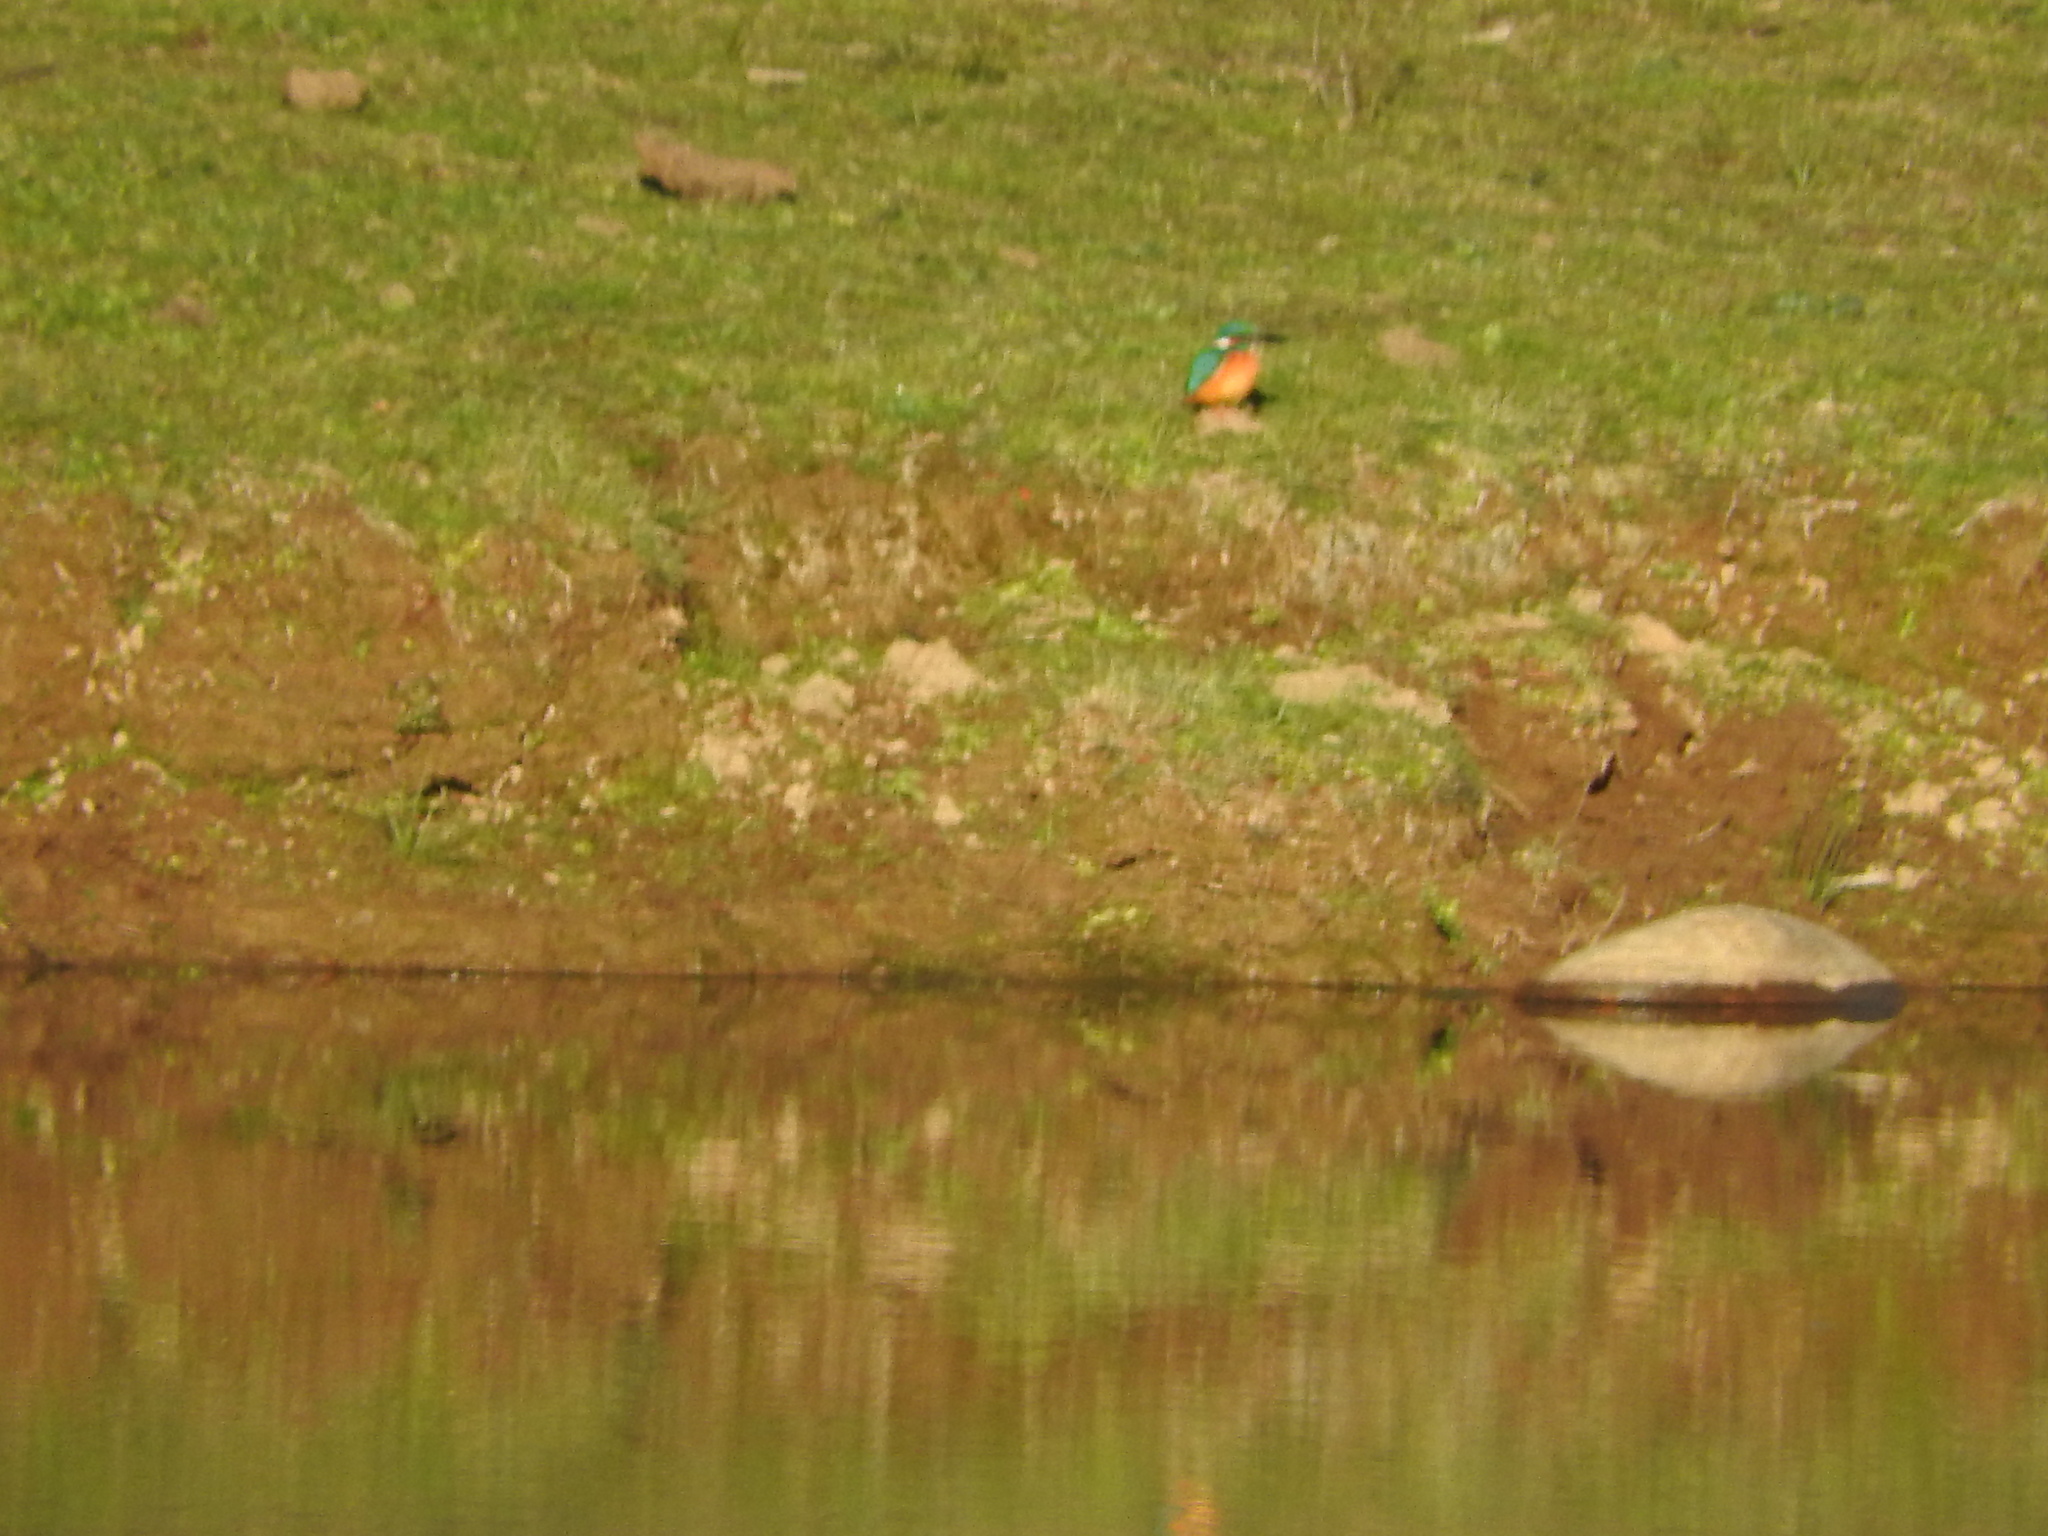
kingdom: Animalia
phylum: Chordata
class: Aves
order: Coraciiformes
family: Alcedinidae
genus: Alcedo
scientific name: Alcedo atthis
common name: Common kingfisher
